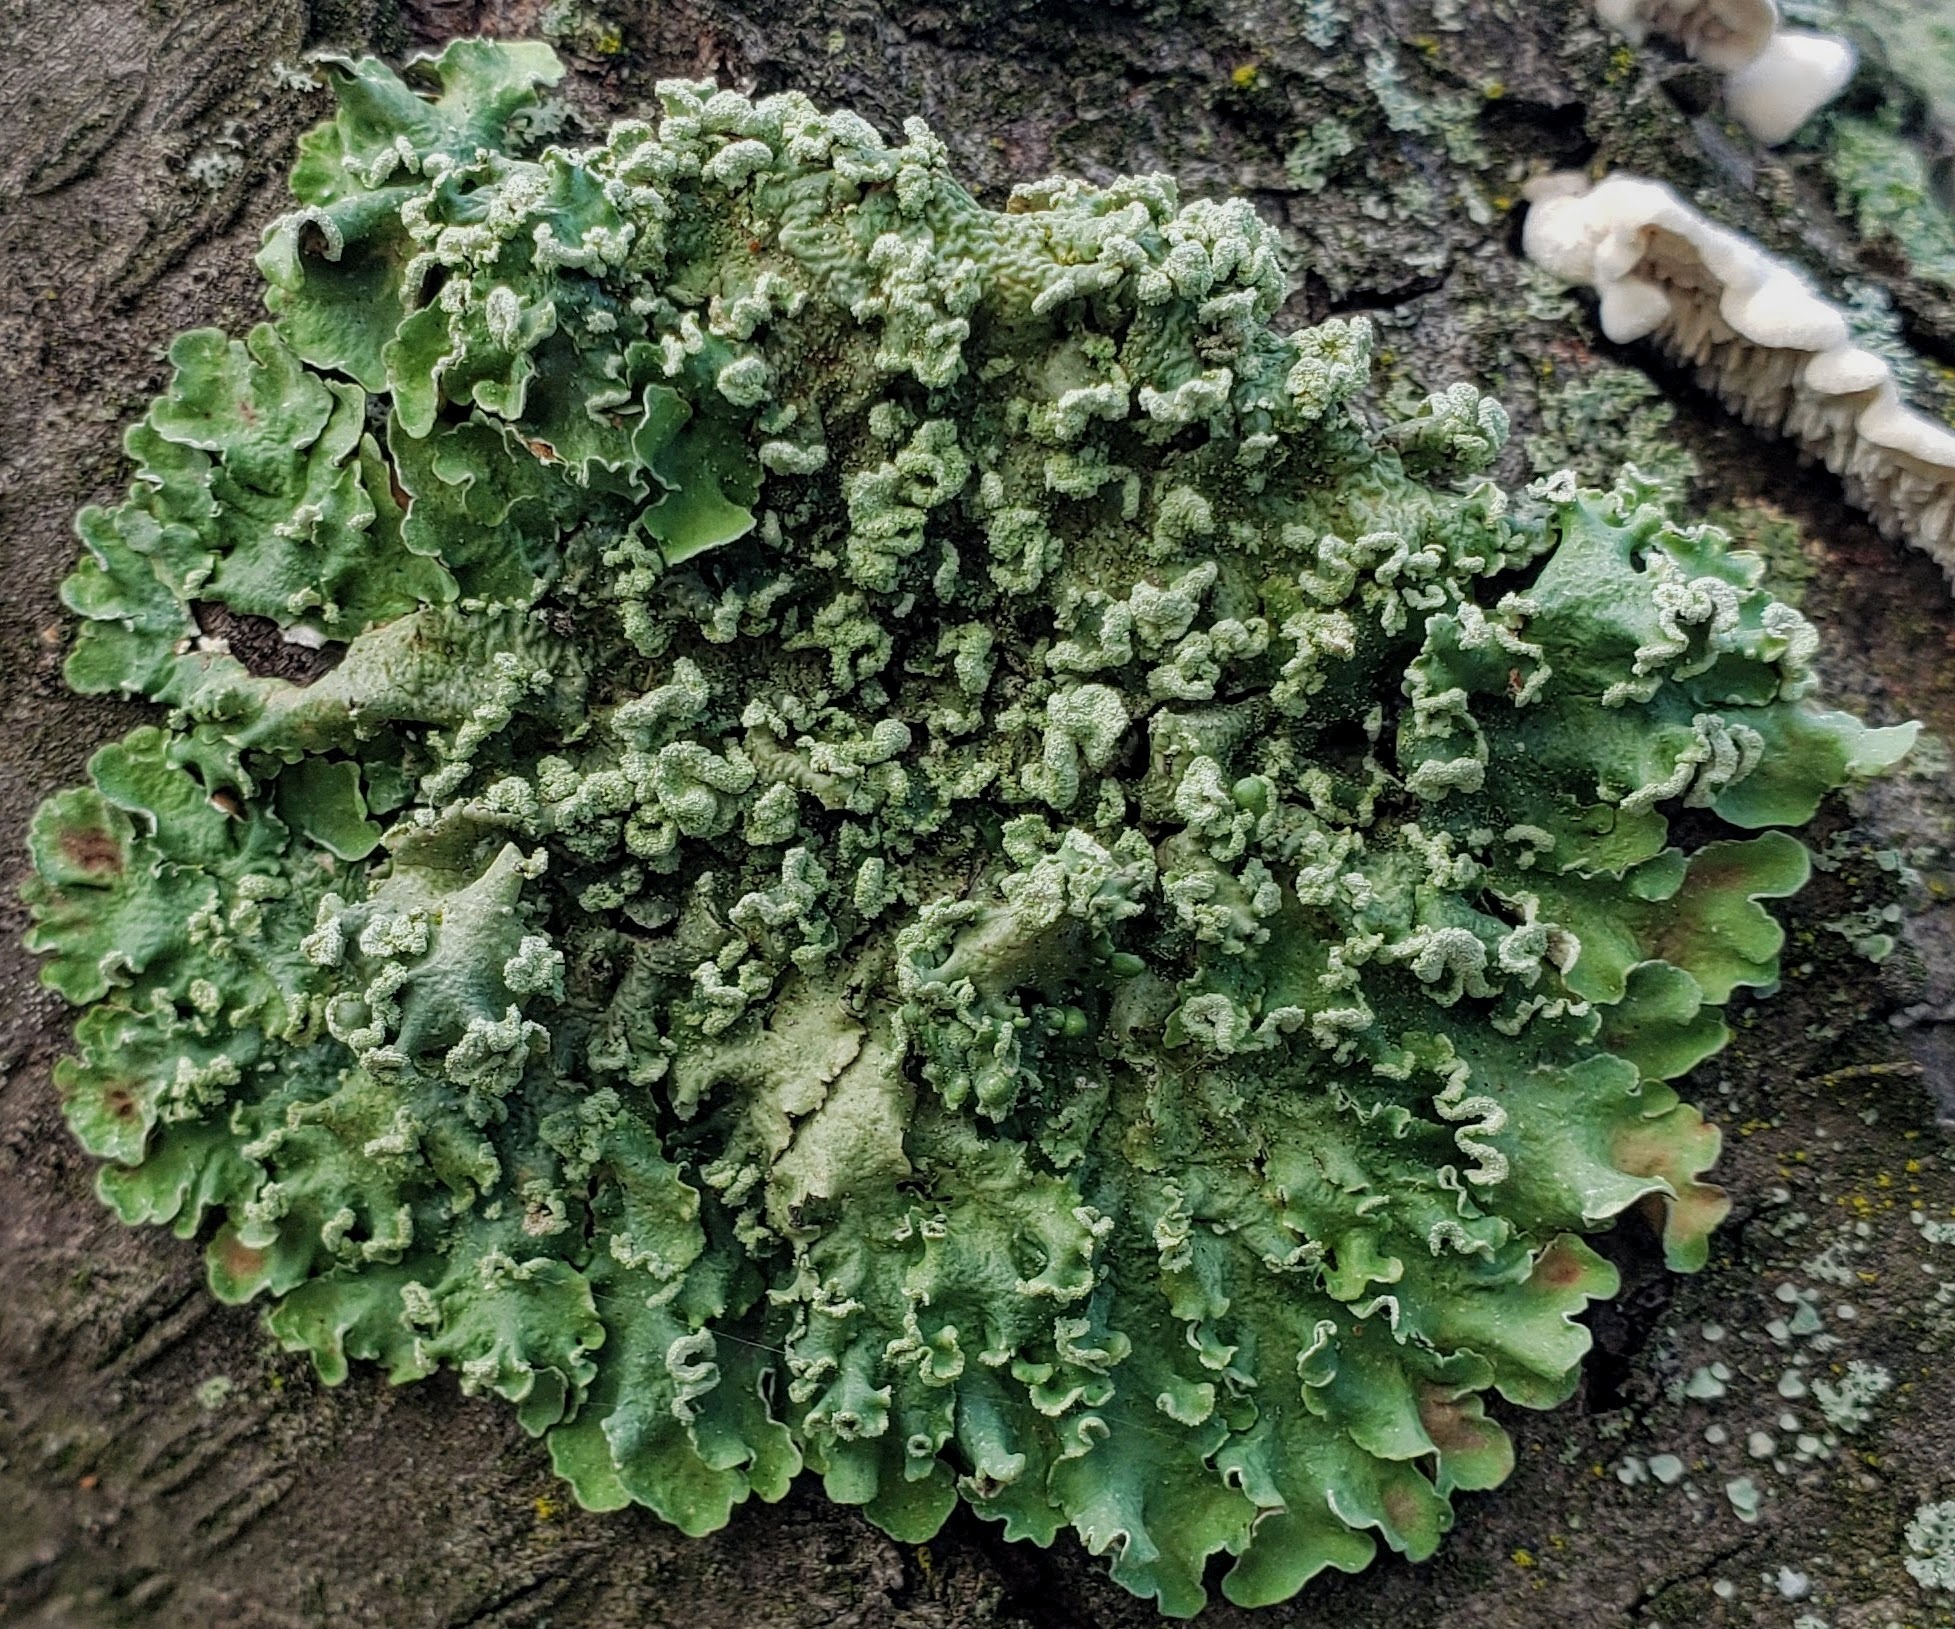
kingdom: Fungi
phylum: Ascomycota
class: Lecanoromycetes
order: Lecanorales
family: Parmeliaceae
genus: Flavopunctelia
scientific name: Flavopunctelia soredica
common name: Powder-edged speckled greenshield
